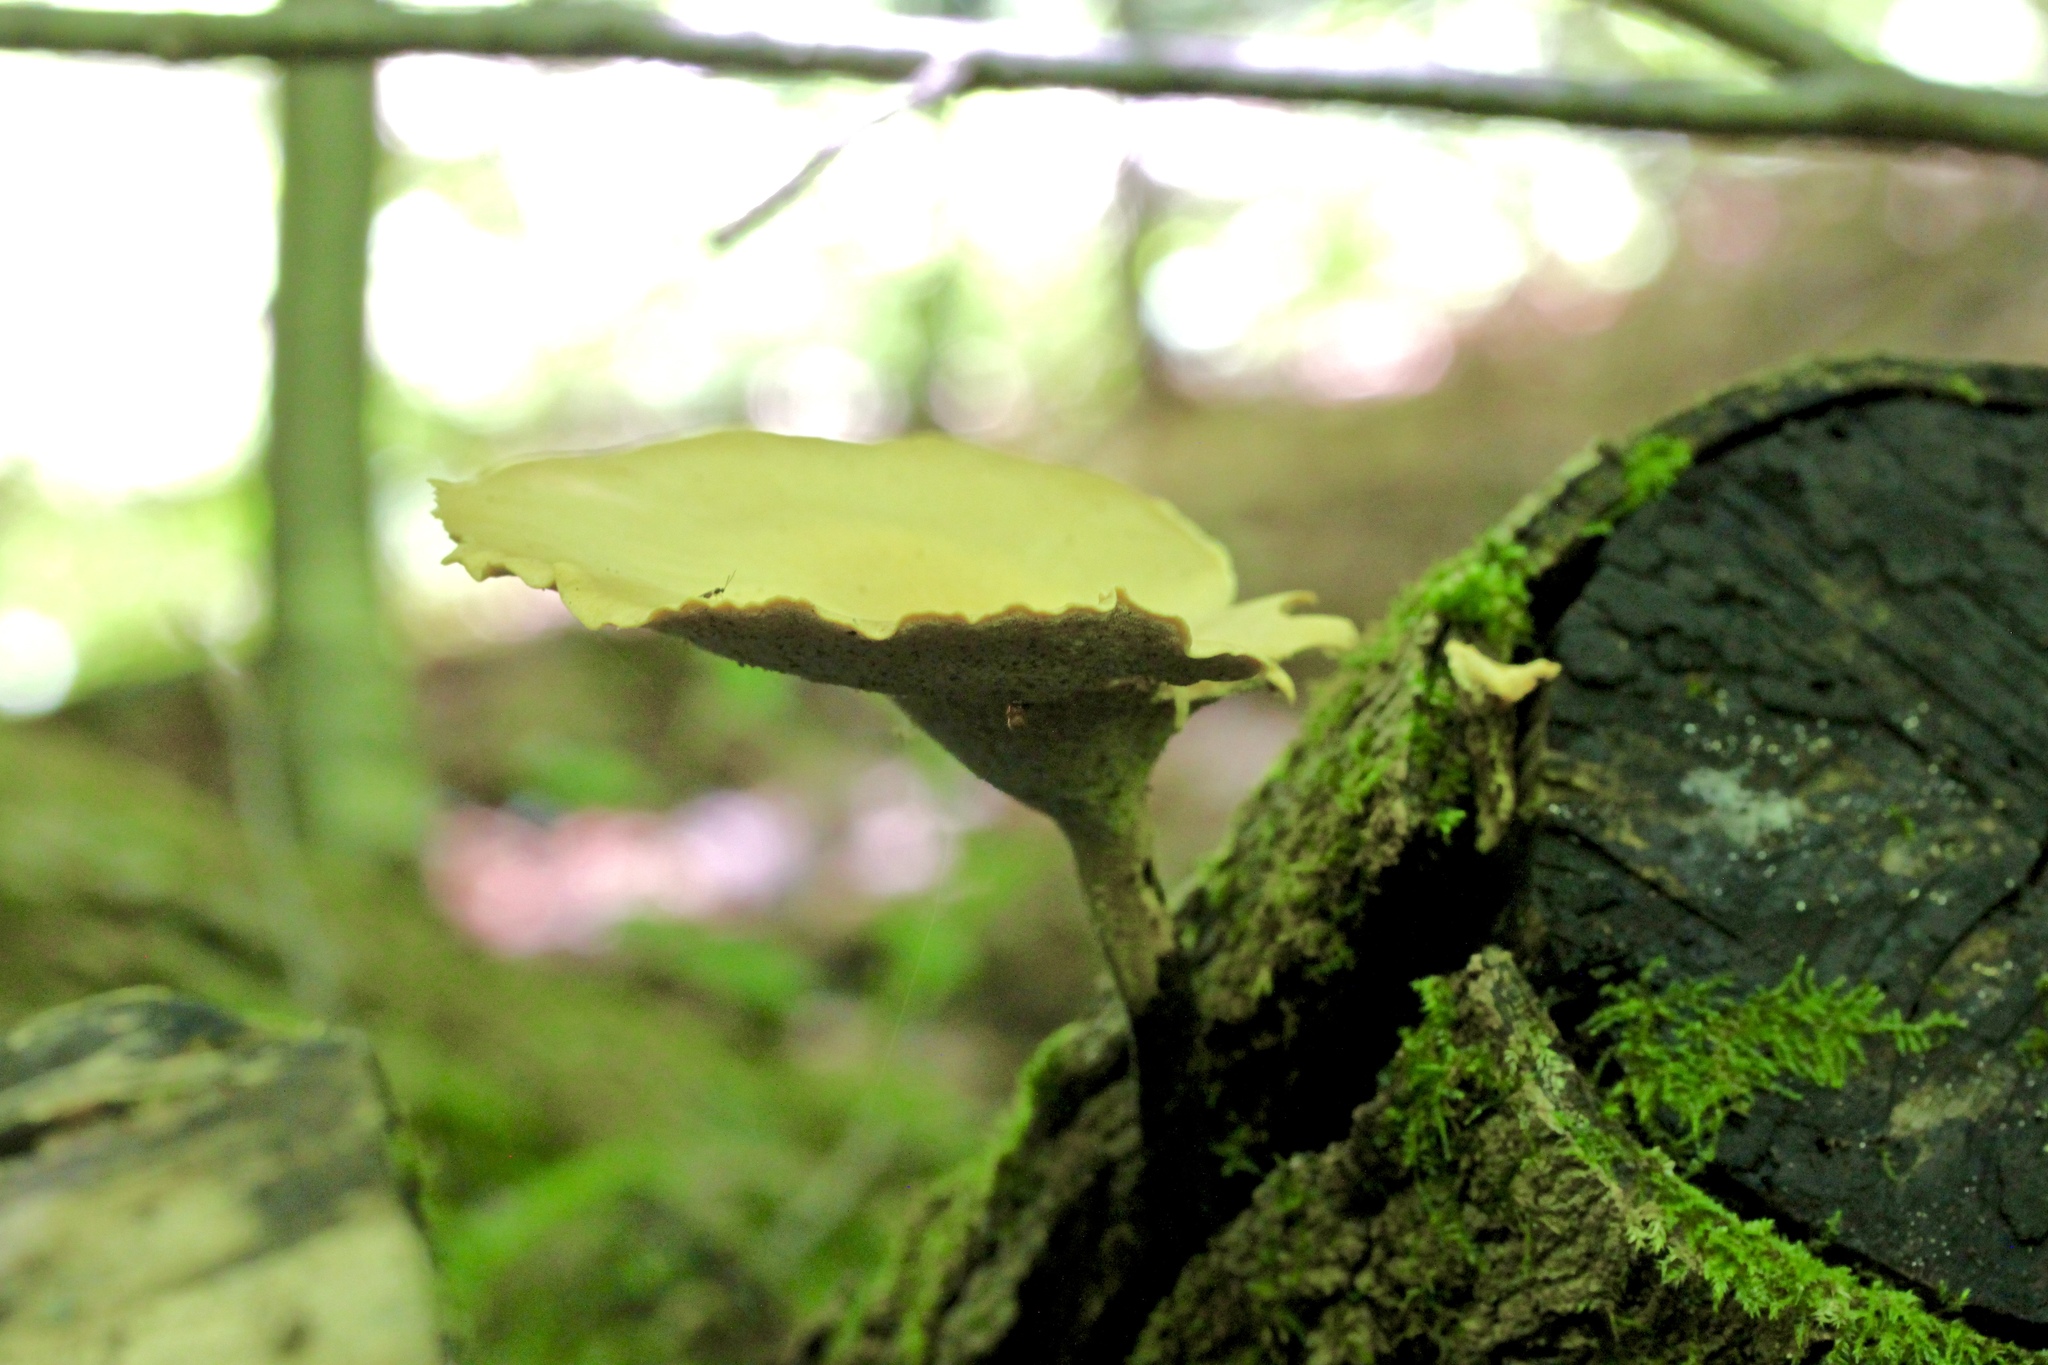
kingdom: Fungi
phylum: Basidiomycota
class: Agaricomycetes
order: Polyporales
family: Polyporaceae
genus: Cerioporus
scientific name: Cerioporus varius
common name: Elegant polypore
